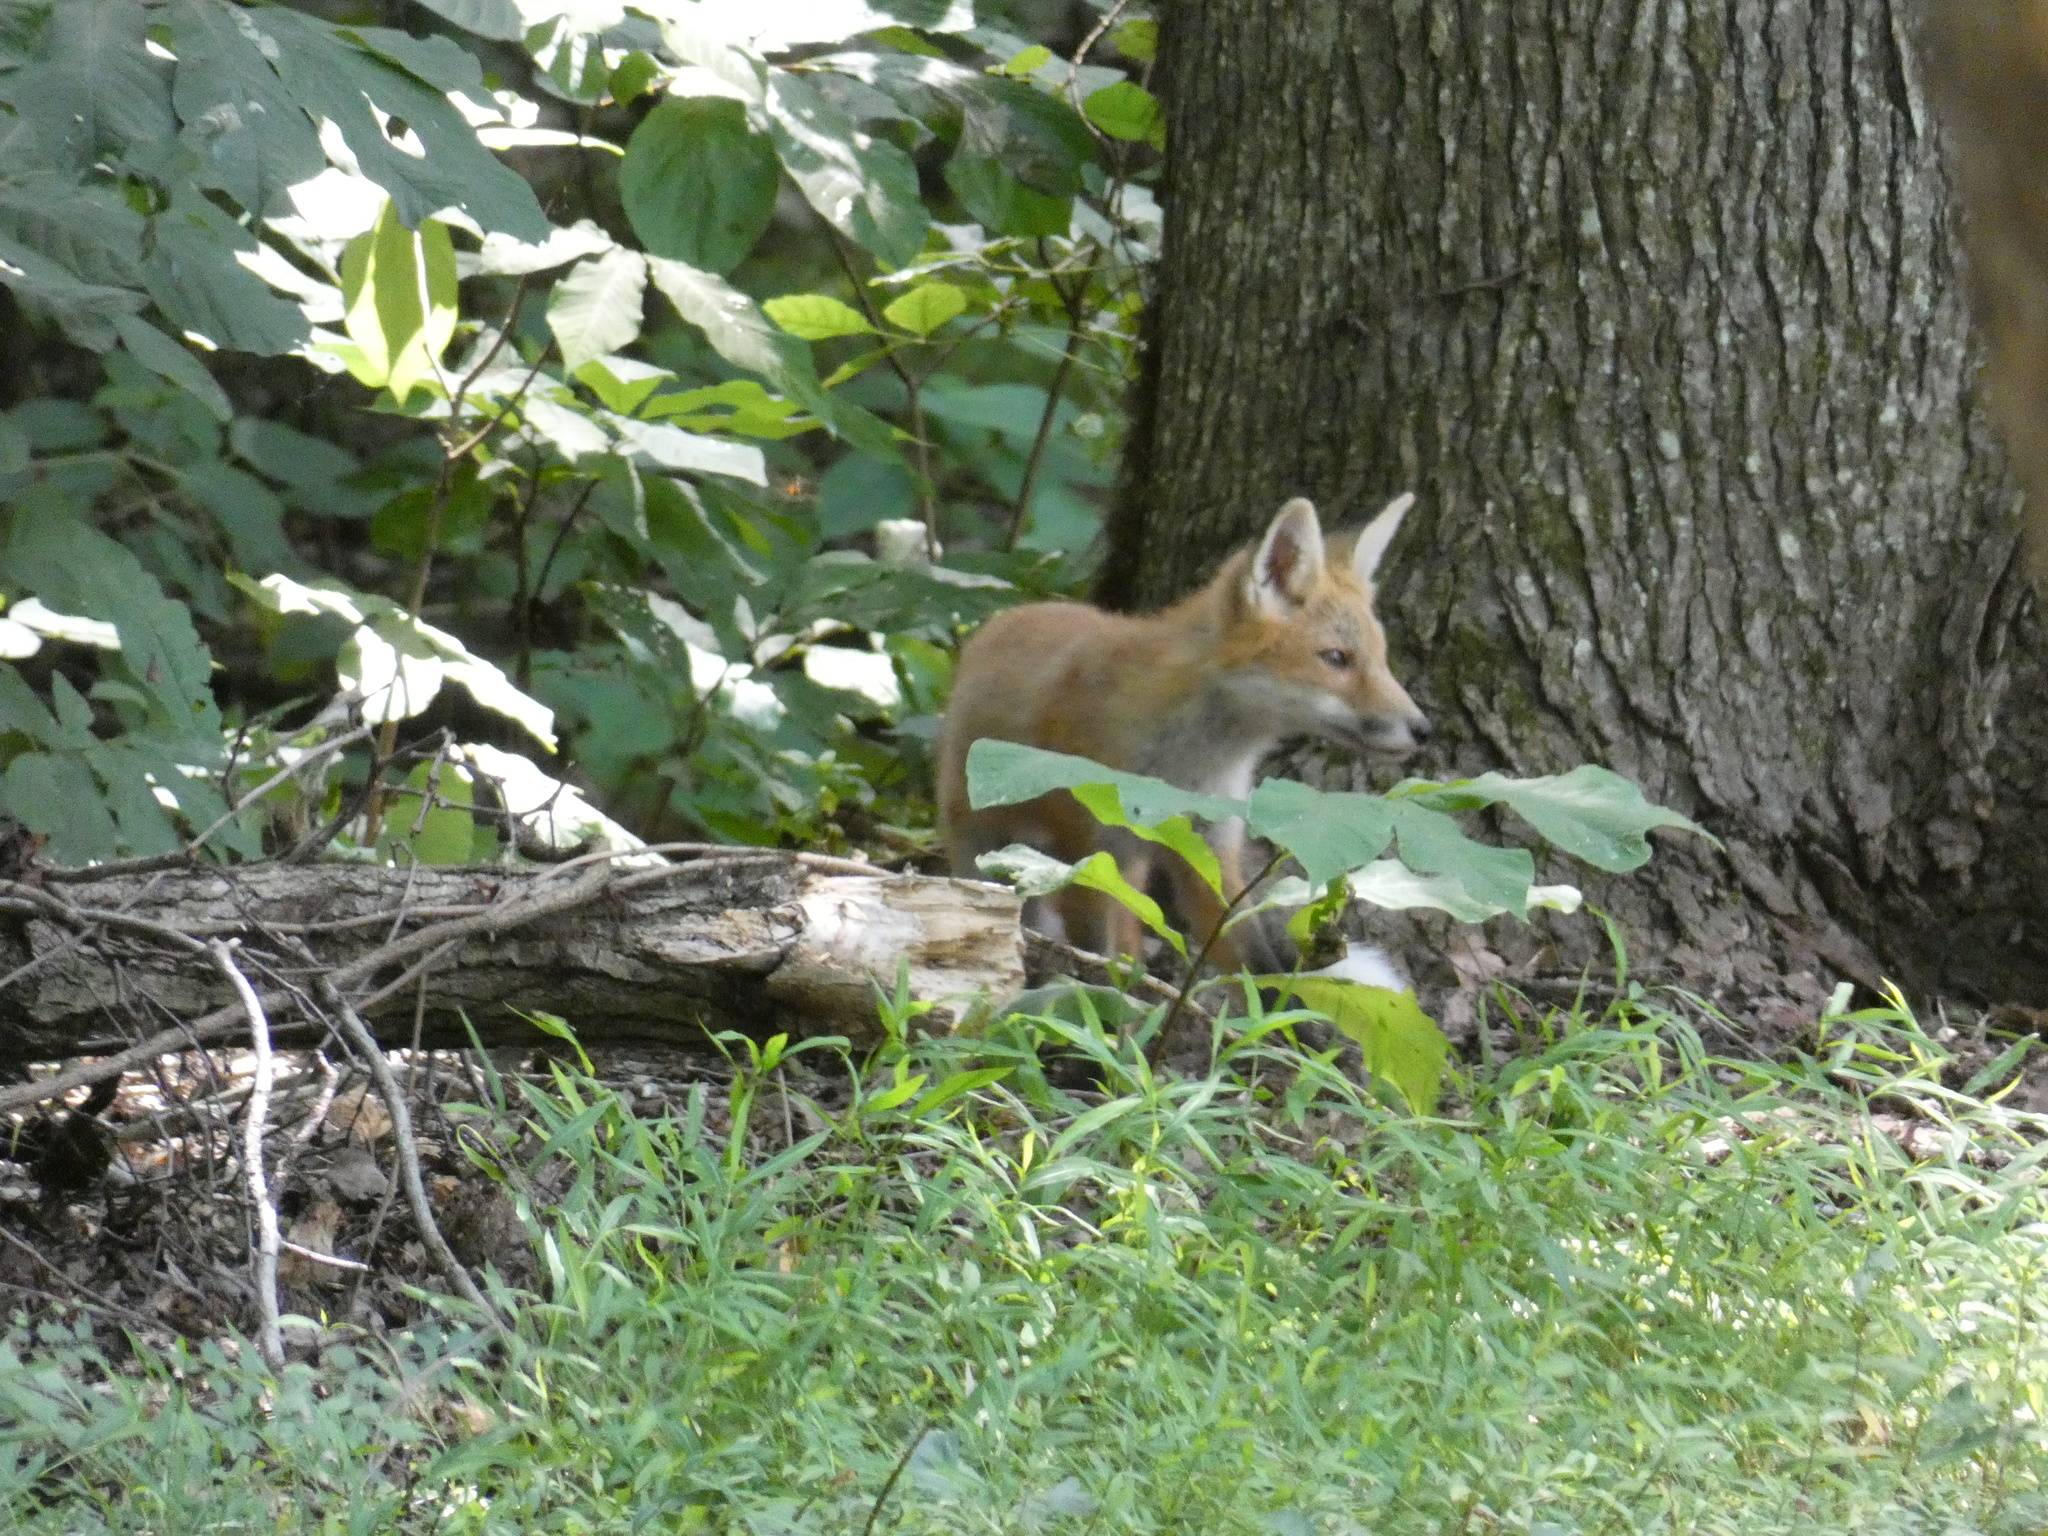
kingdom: Animalia
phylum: Chordata
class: Mammalia
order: Carnivora
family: Canidae
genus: Vulpes
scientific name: Vulpes vulpes
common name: Red fox
